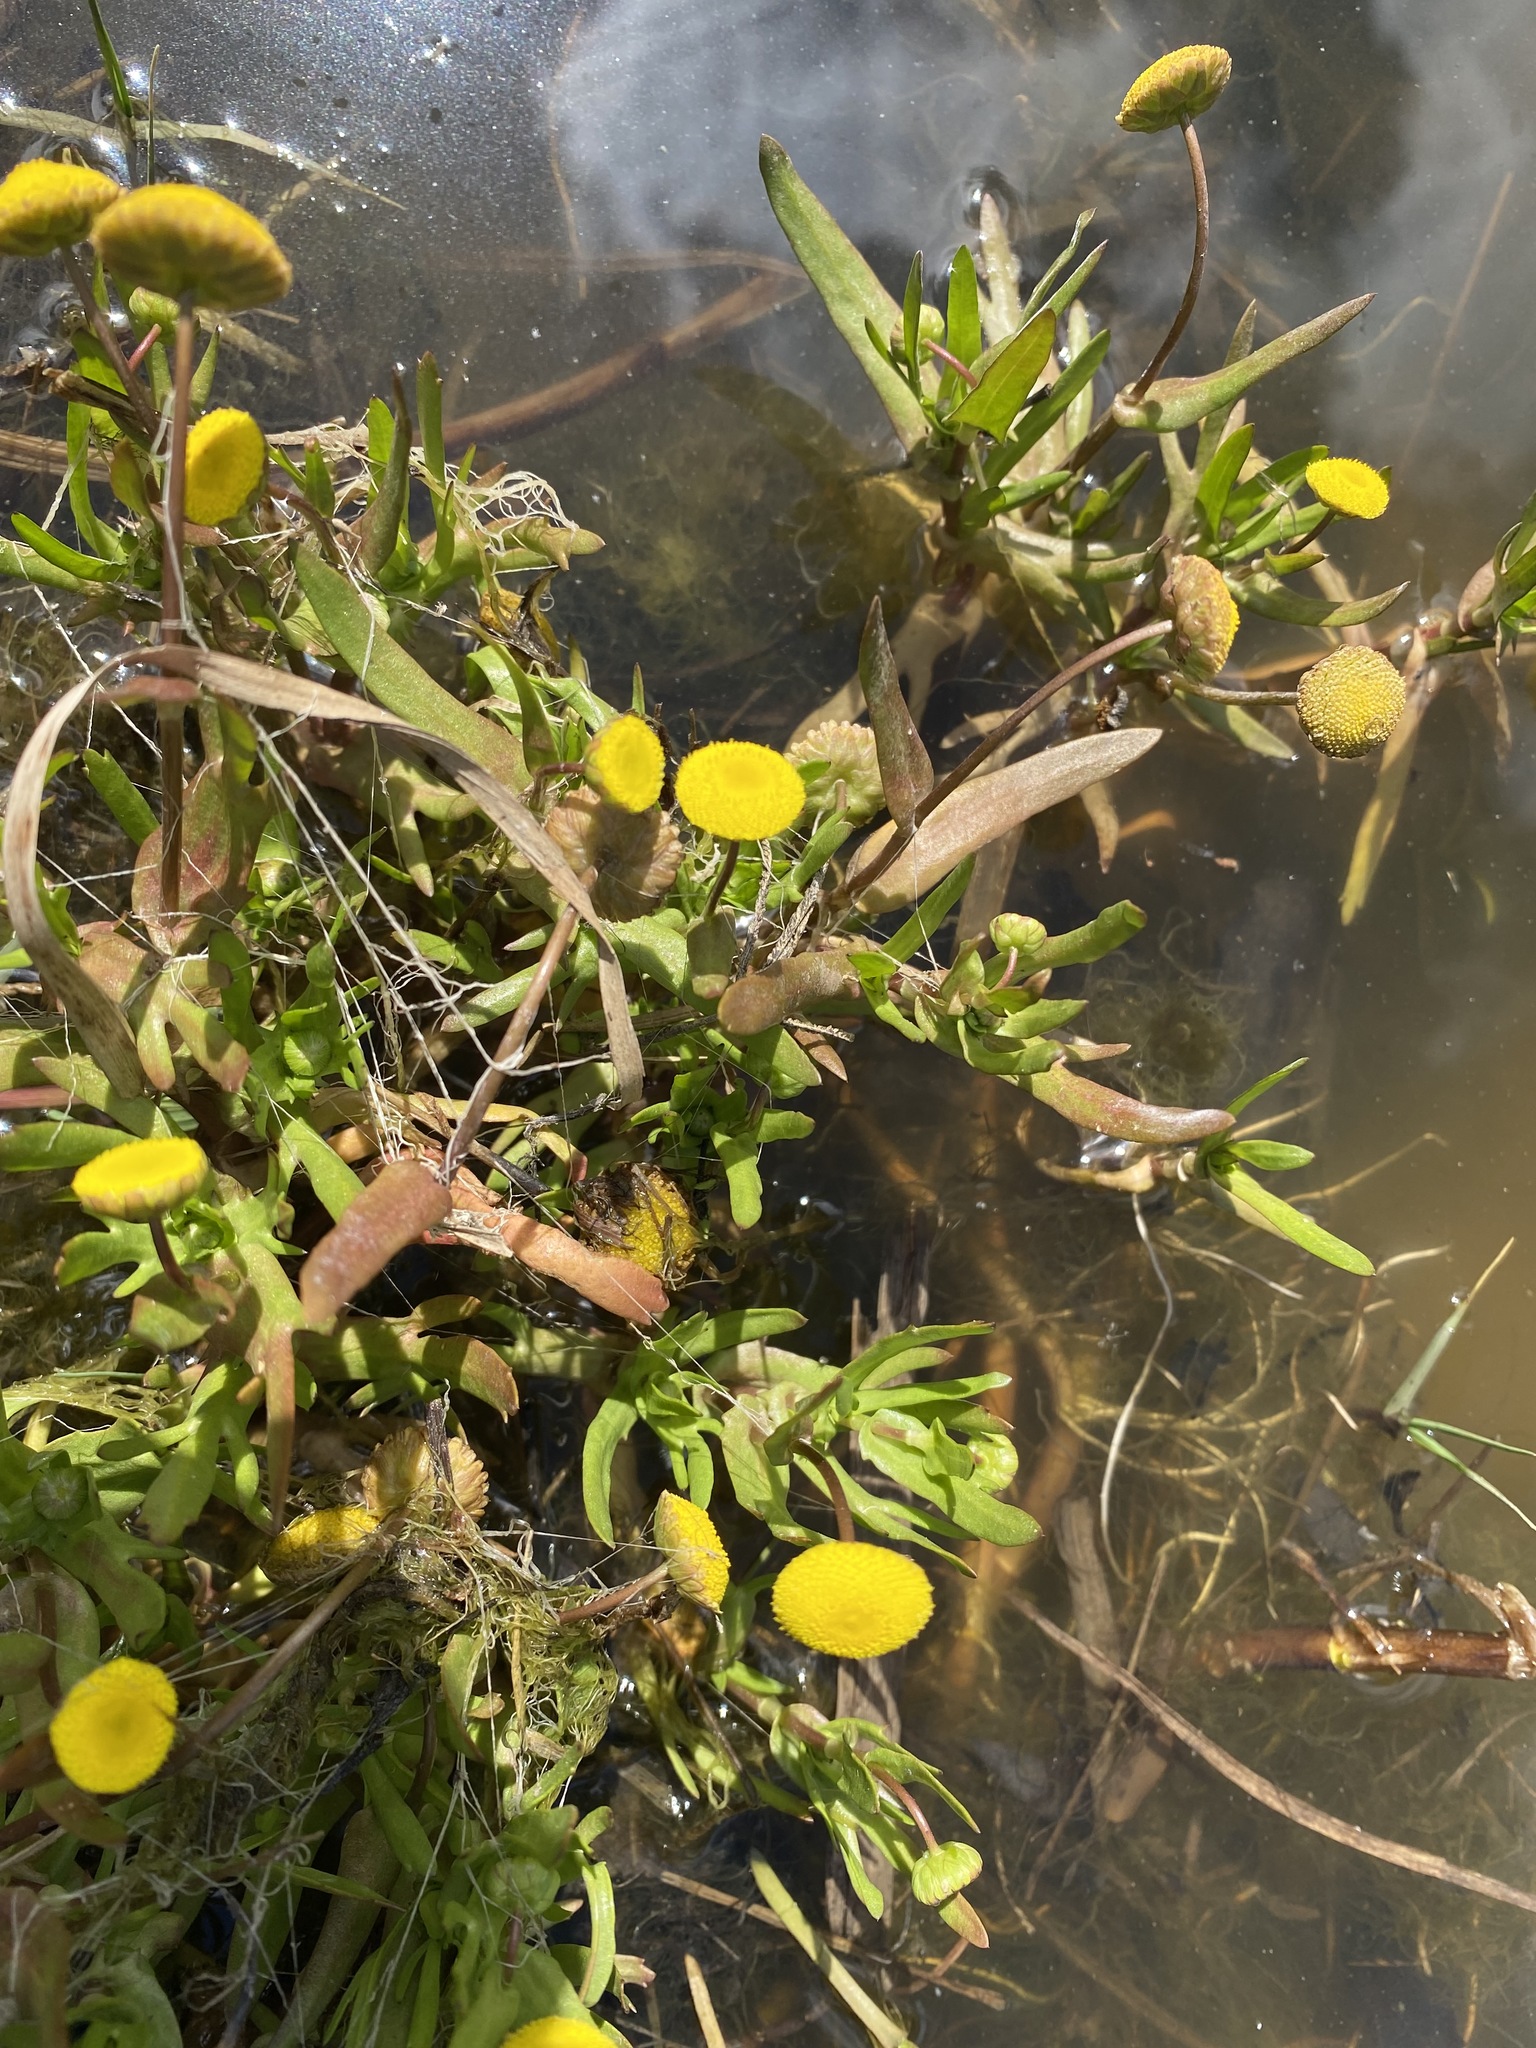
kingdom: Plantae
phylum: Tracheophyta
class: Magnoliopsida
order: Asterales
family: Asteraceae
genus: Cotula
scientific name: Cotula coronopifolia
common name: Buttonweed
